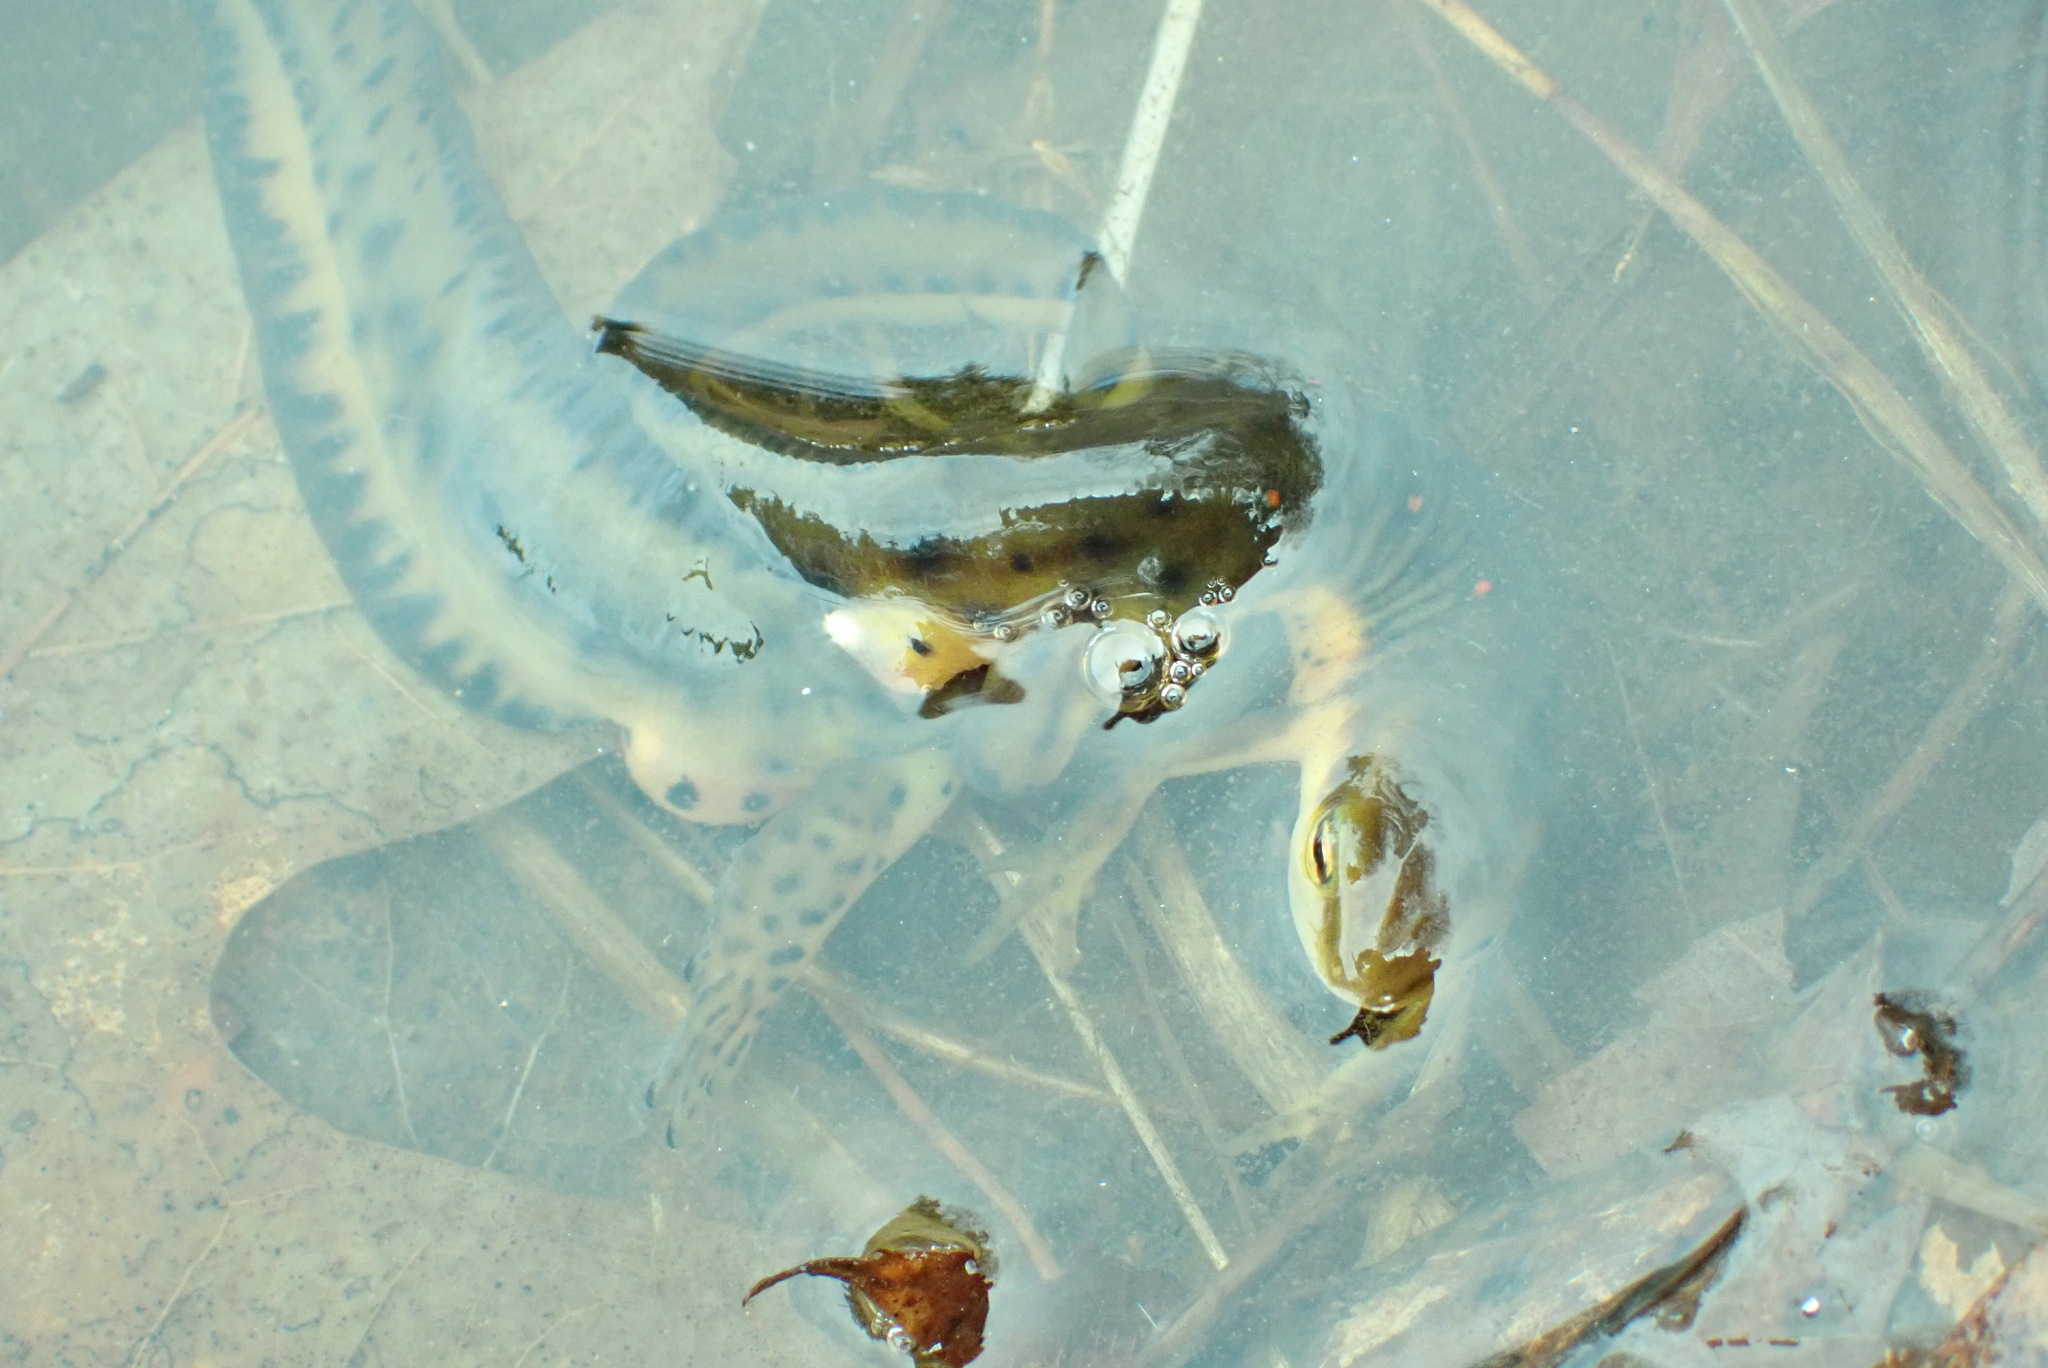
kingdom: Animalia
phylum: Chordata
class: Amphibia
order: Caudata
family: Salamandridae
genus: Notophthalmus
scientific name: Notophthalmus viridescens
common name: Eastern newt
